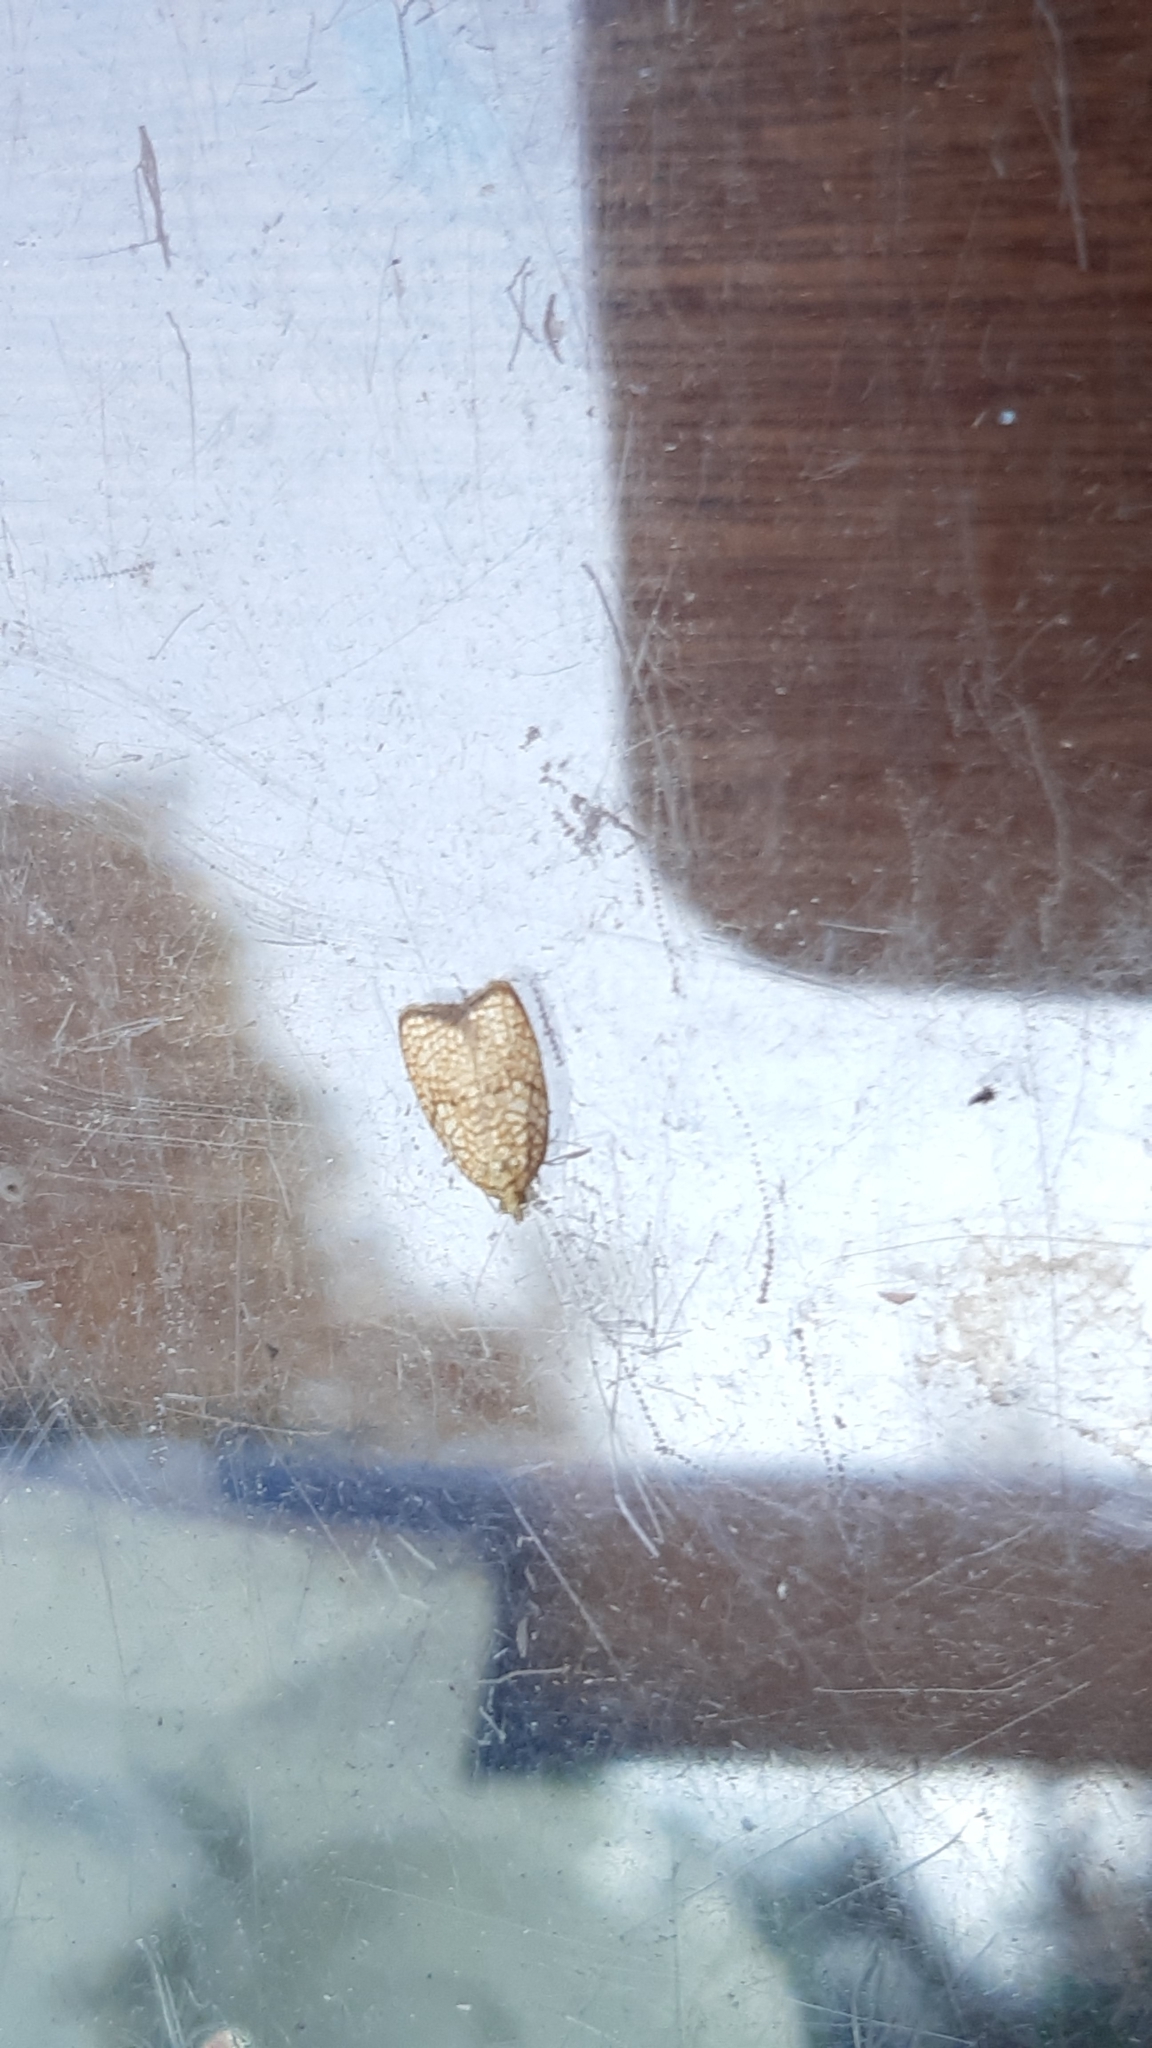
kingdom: Animalia
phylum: Arthropoda
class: Insecta
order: Lepidoptera
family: Tortricidae
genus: Acleris
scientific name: Acleris forsskaleana
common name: Maple button
